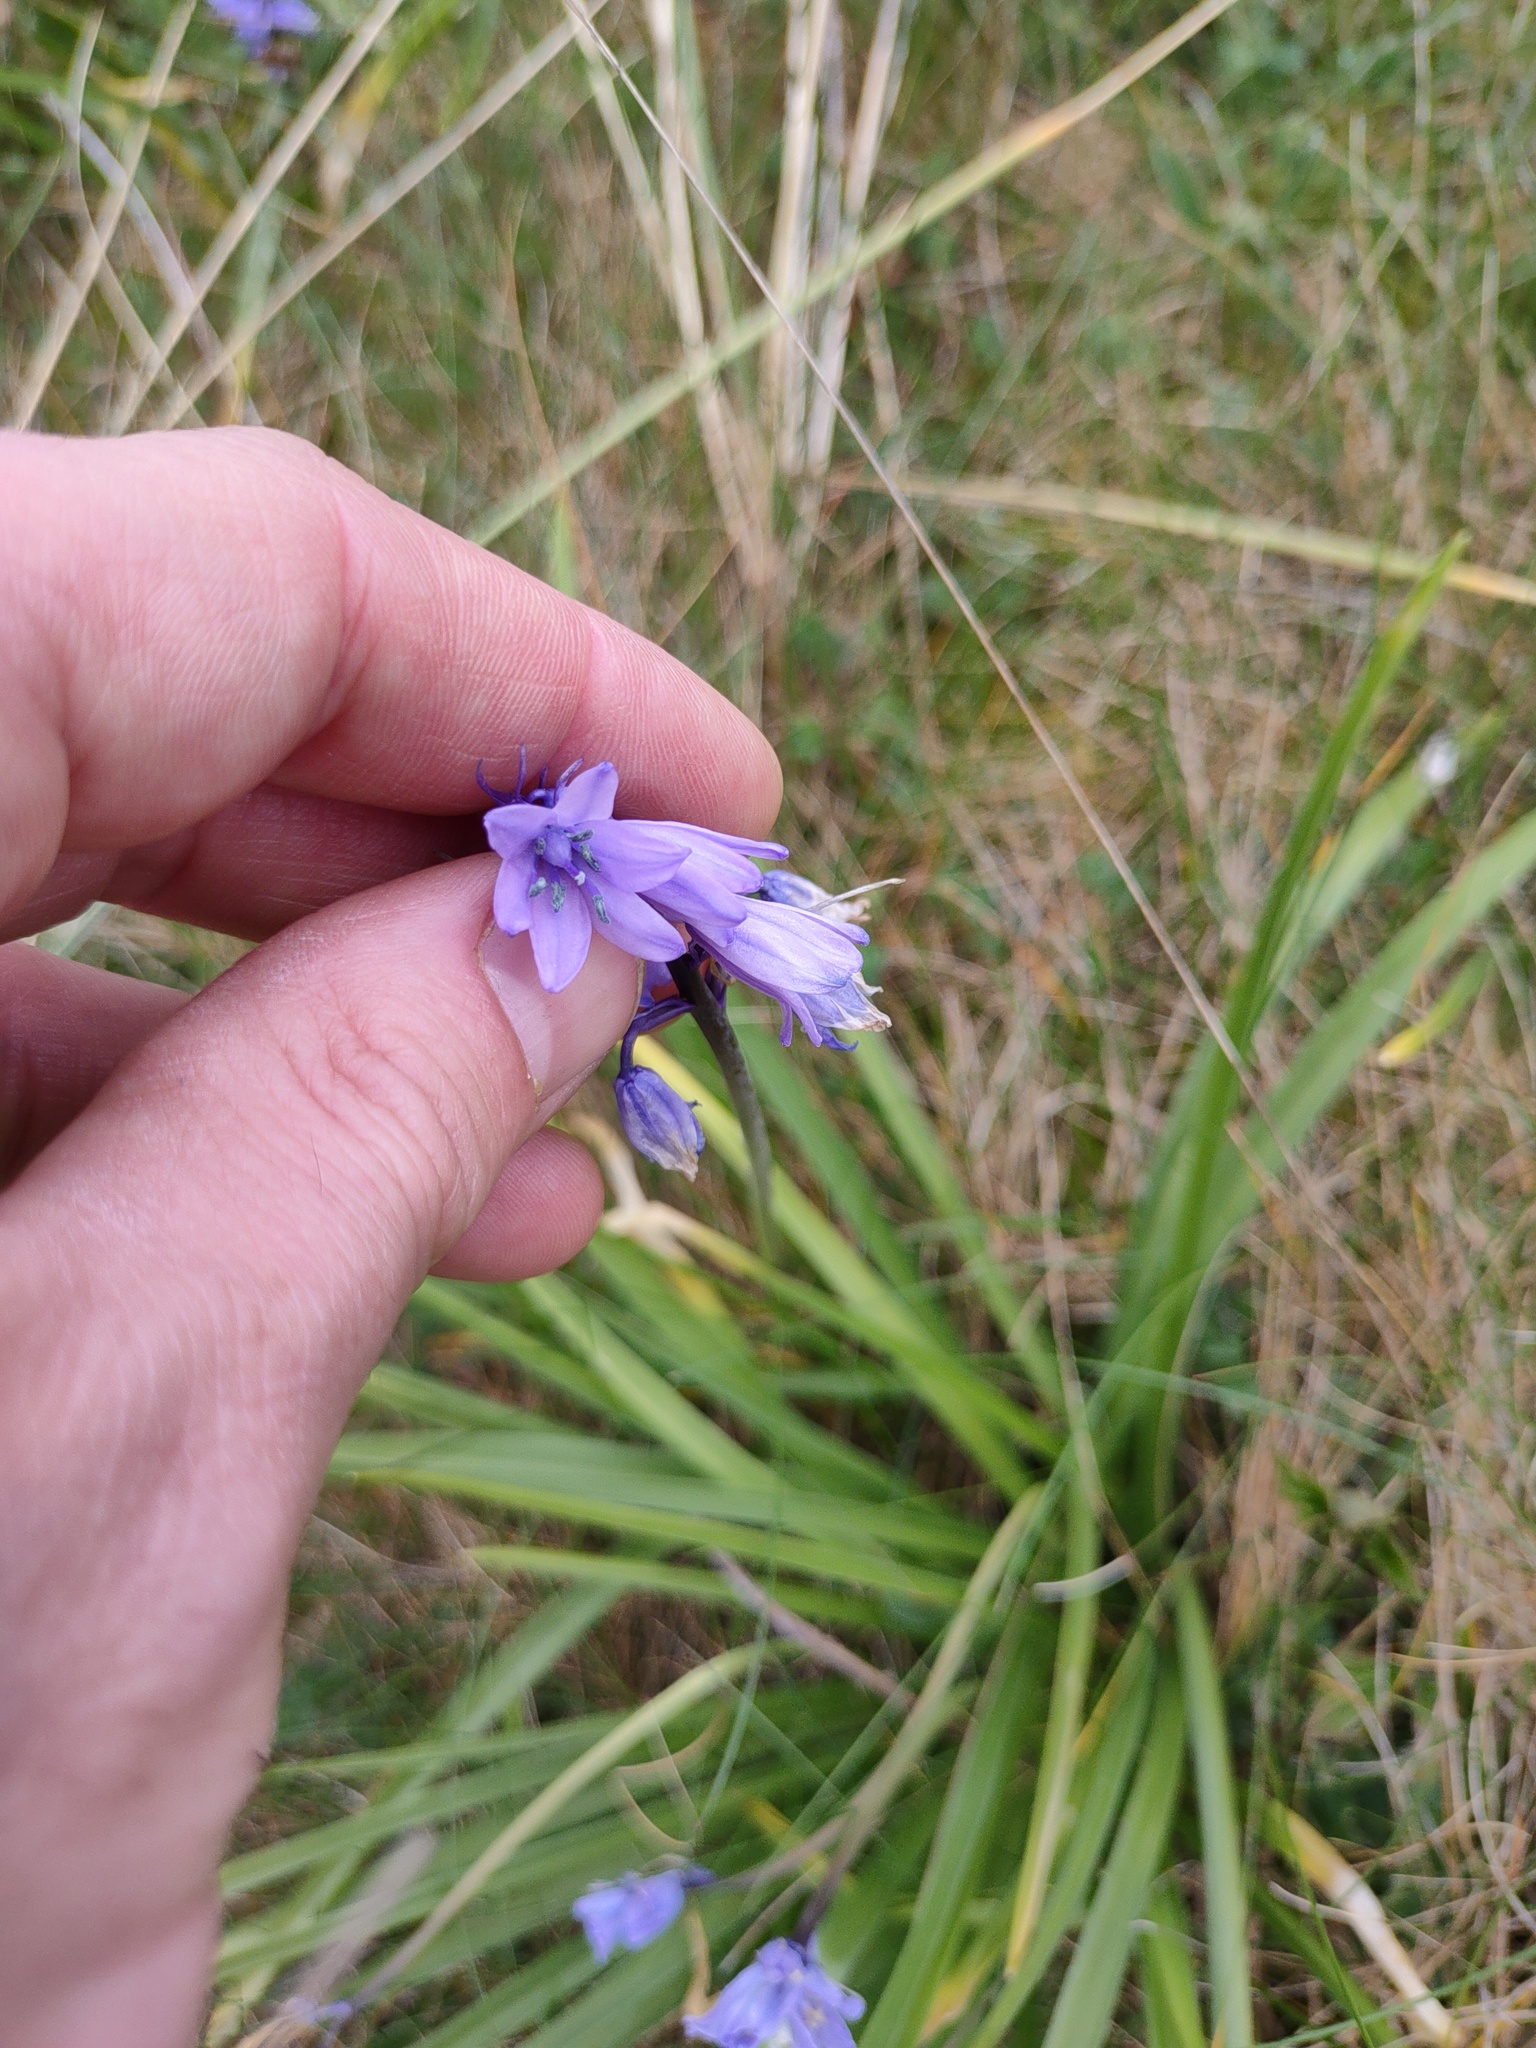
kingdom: Plantae
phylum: Tracheophyta
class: Liliopsida
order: Asparagales
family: Asparagaceae
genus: Hyacinthoides
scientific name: Hyacinthoides massartiana
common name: Hyacinthoides
